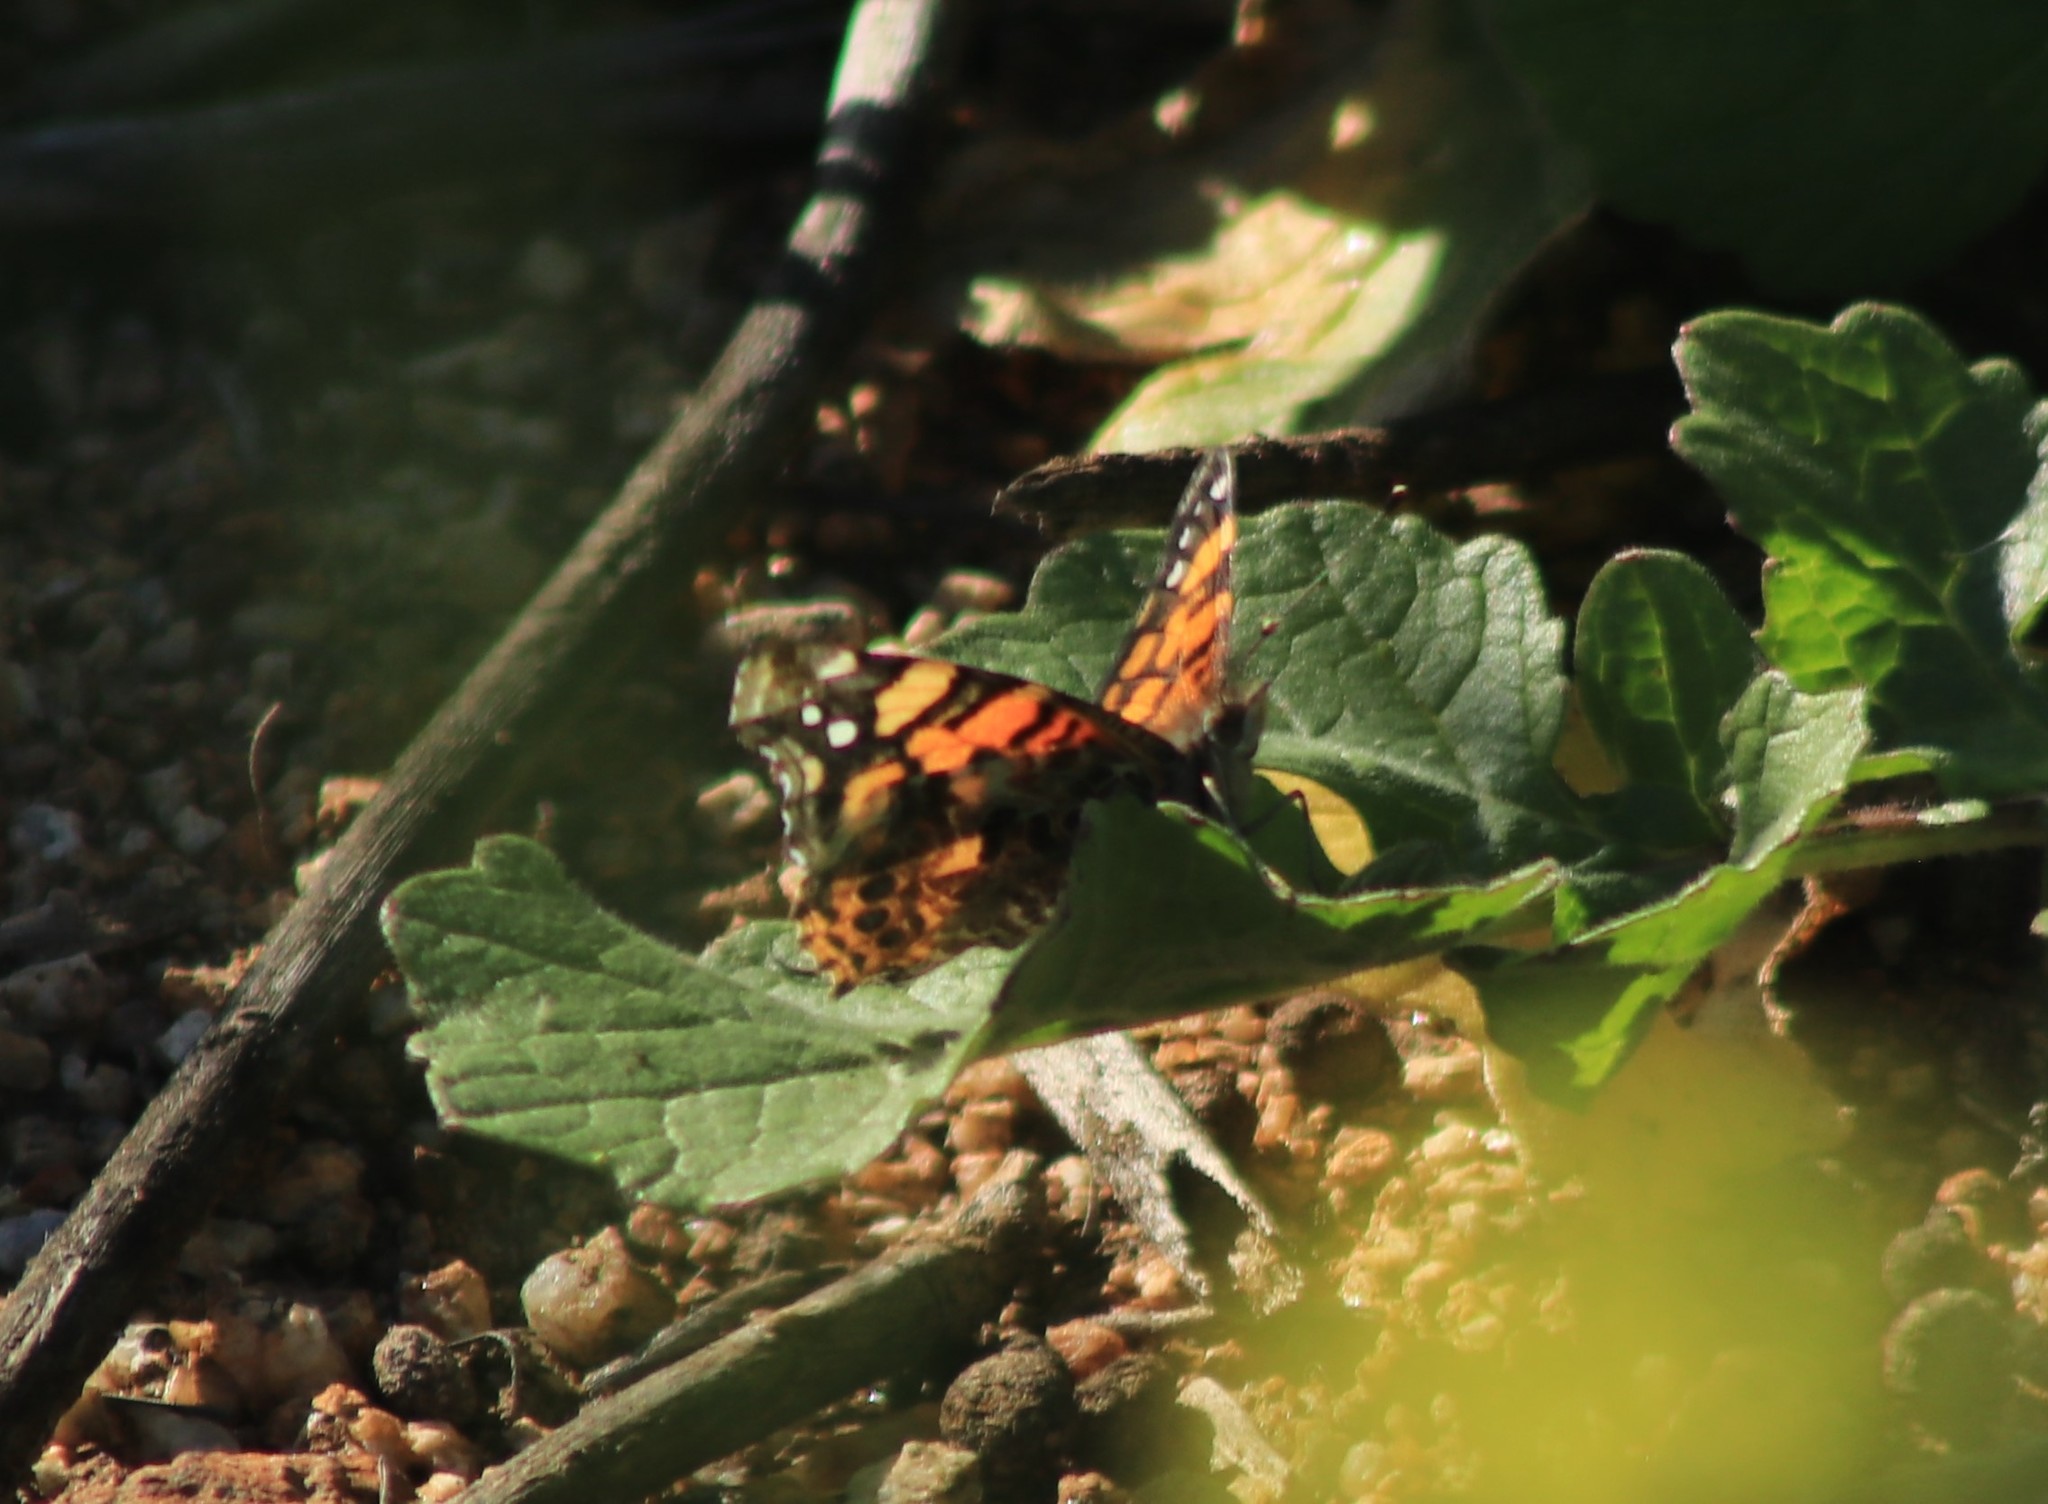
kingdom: Animalia
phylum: Arthropoda
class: Insecta
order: Lepidoptera
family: Nymphalidae
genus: Vanessa
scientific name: Vanessa annabella
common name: West coast lady
